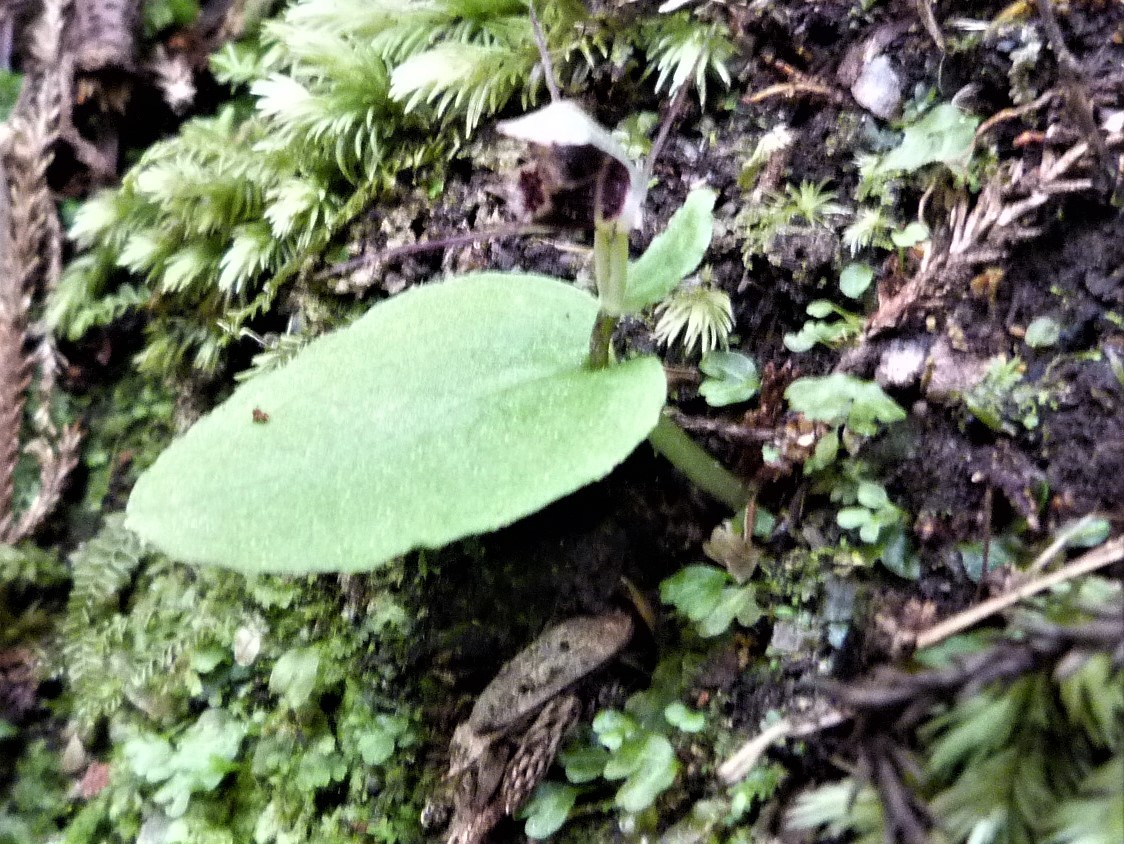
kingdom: Plantae
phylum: Tracheophyta
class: Liliopsida
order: Asparagales
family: Orchidaceae
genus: Corybas
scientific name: Corybas oblongus
